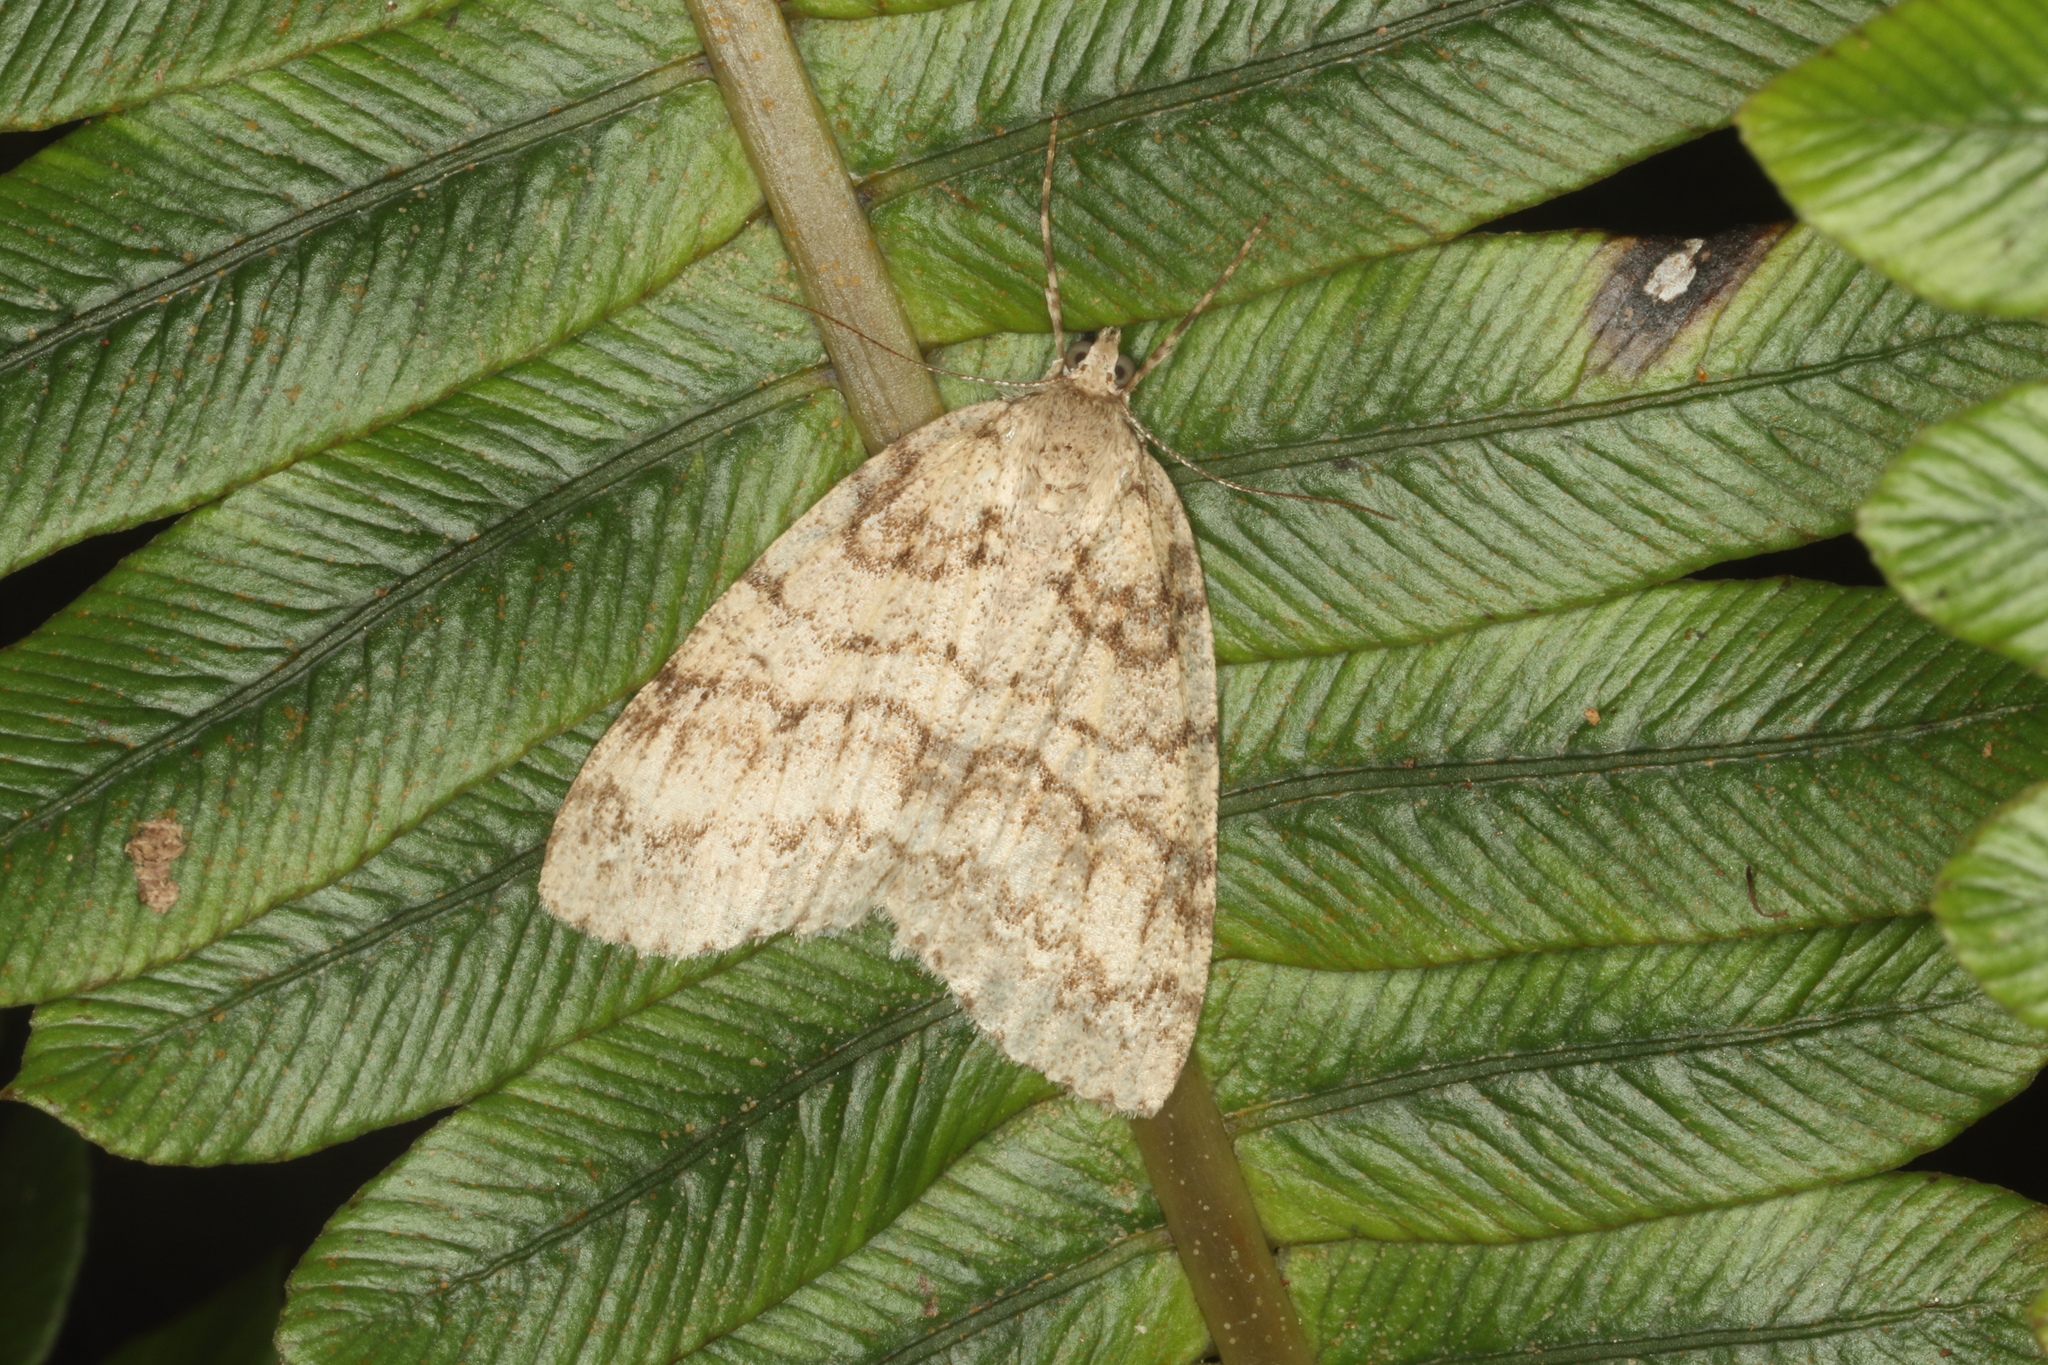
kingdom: Animalia
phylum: Arthropoda
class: Insecta
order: Lepidoptera
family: Geometridae
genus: Pseudocoremia
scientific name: Pseudocoremia fenerata
